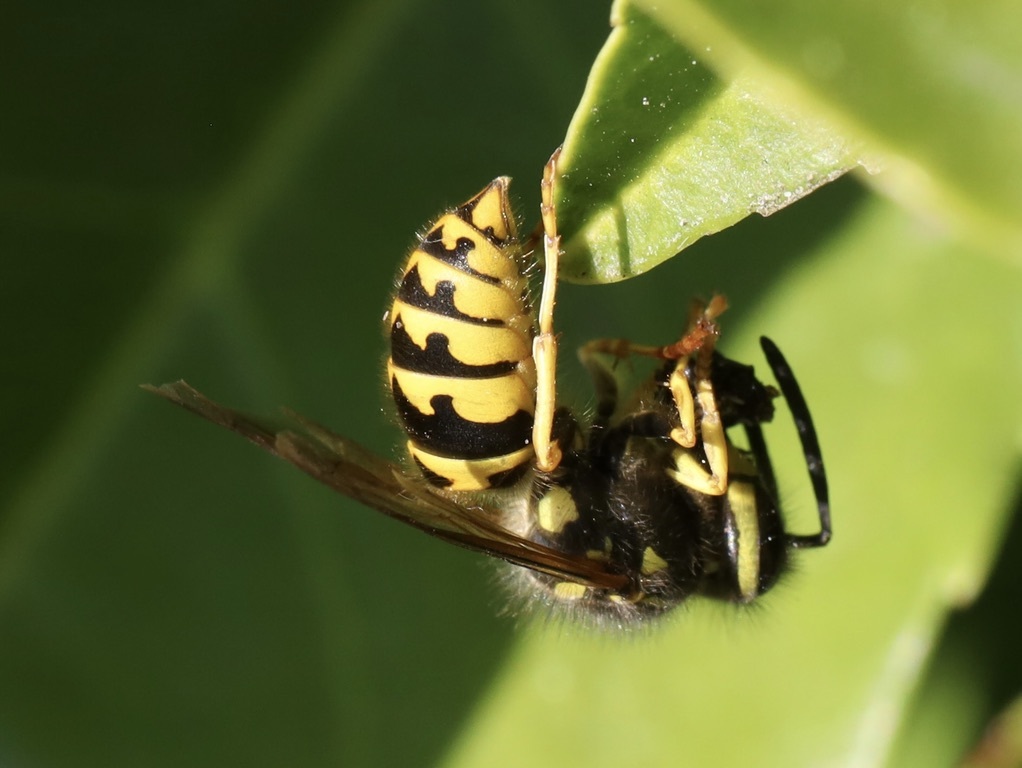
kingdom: Animalia
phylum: Arthropoda
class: Insecta
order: Hymenoptera
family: Vespidae
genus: Vespula
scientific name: Vespula pensylvanica
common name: Western yellowjacket
